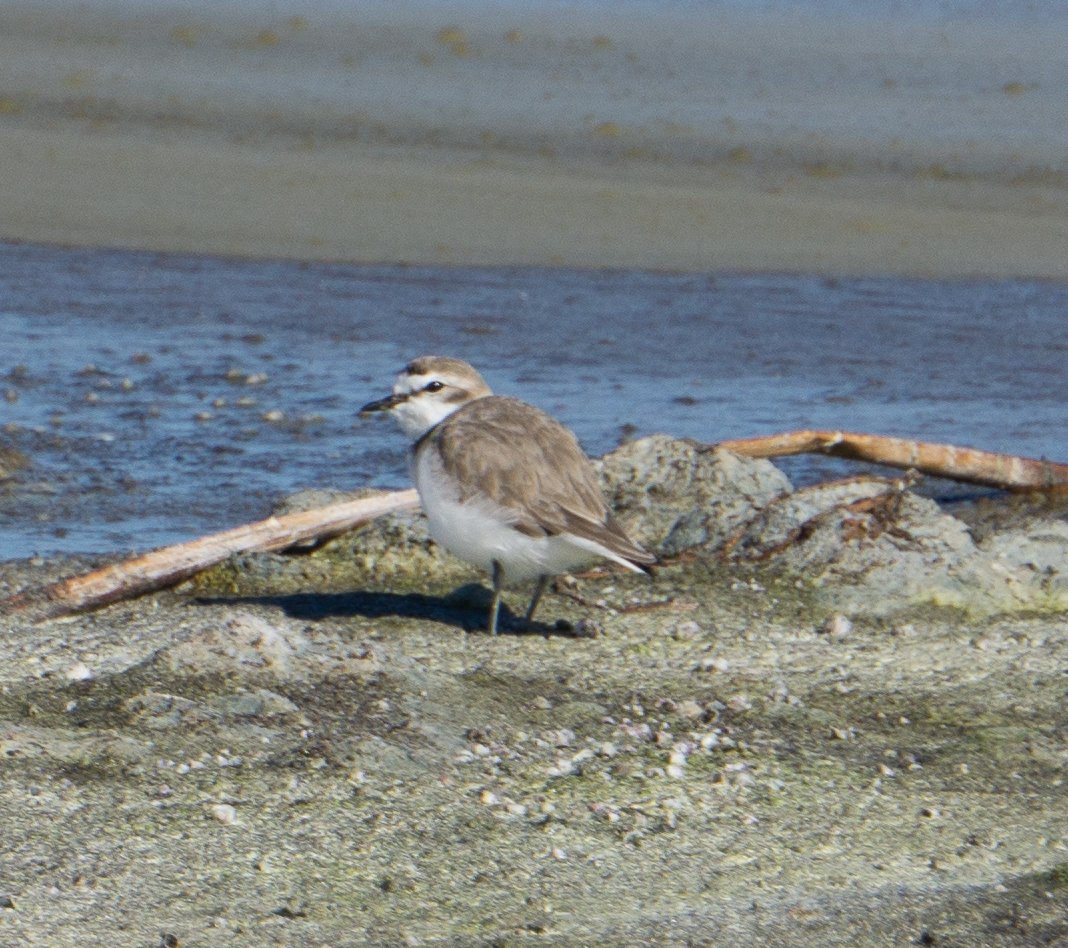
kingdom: Animalia
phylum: Chordata
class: Aves
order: Charadriiformes
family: Charadriidae
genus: Anarhynchus
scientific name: Anarhynchus
